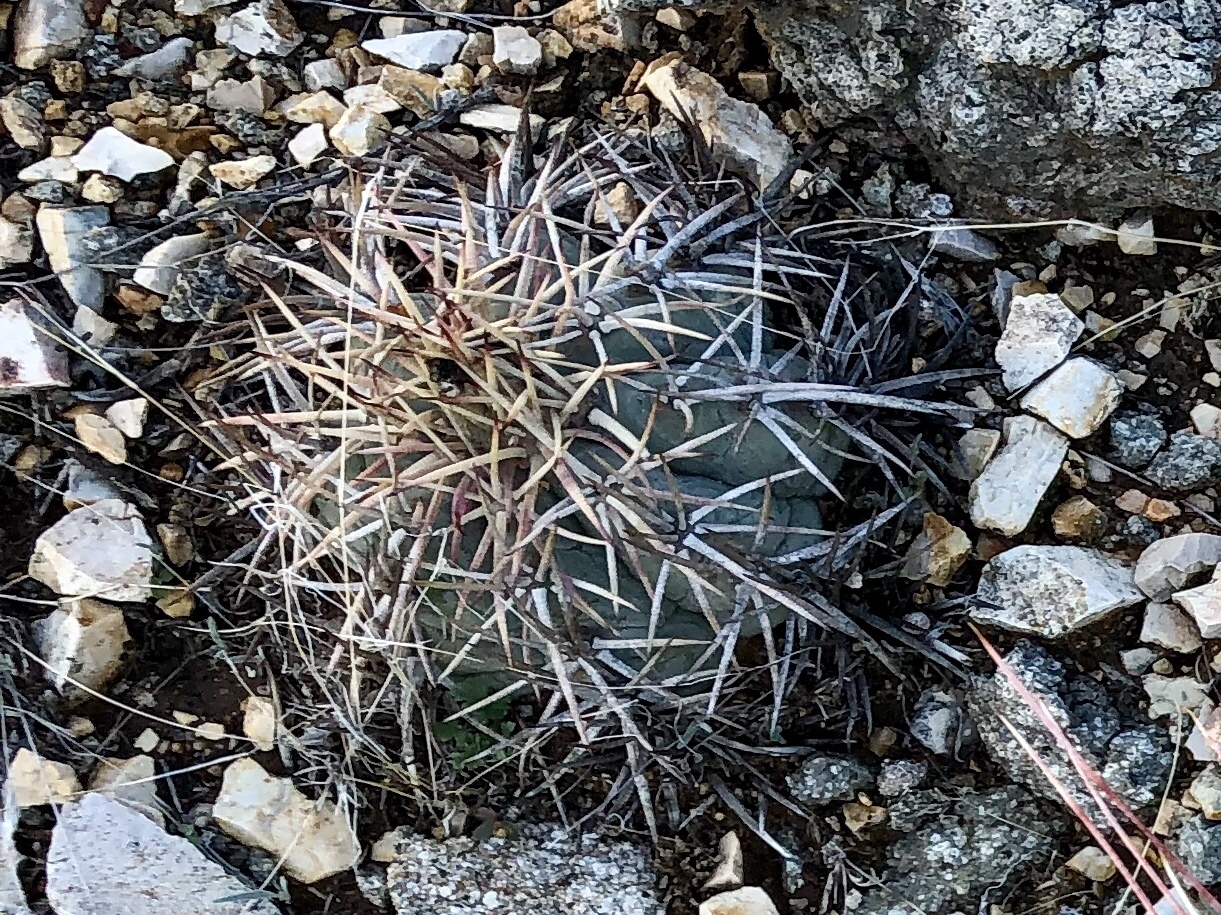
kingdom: Plantae
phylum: Tracheophyta
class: Magnoliopsida
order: Caryophyllales
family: Cactaceae
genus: Echinocactus
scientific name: Echinocactus horizonthalonius
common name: Devilshead
